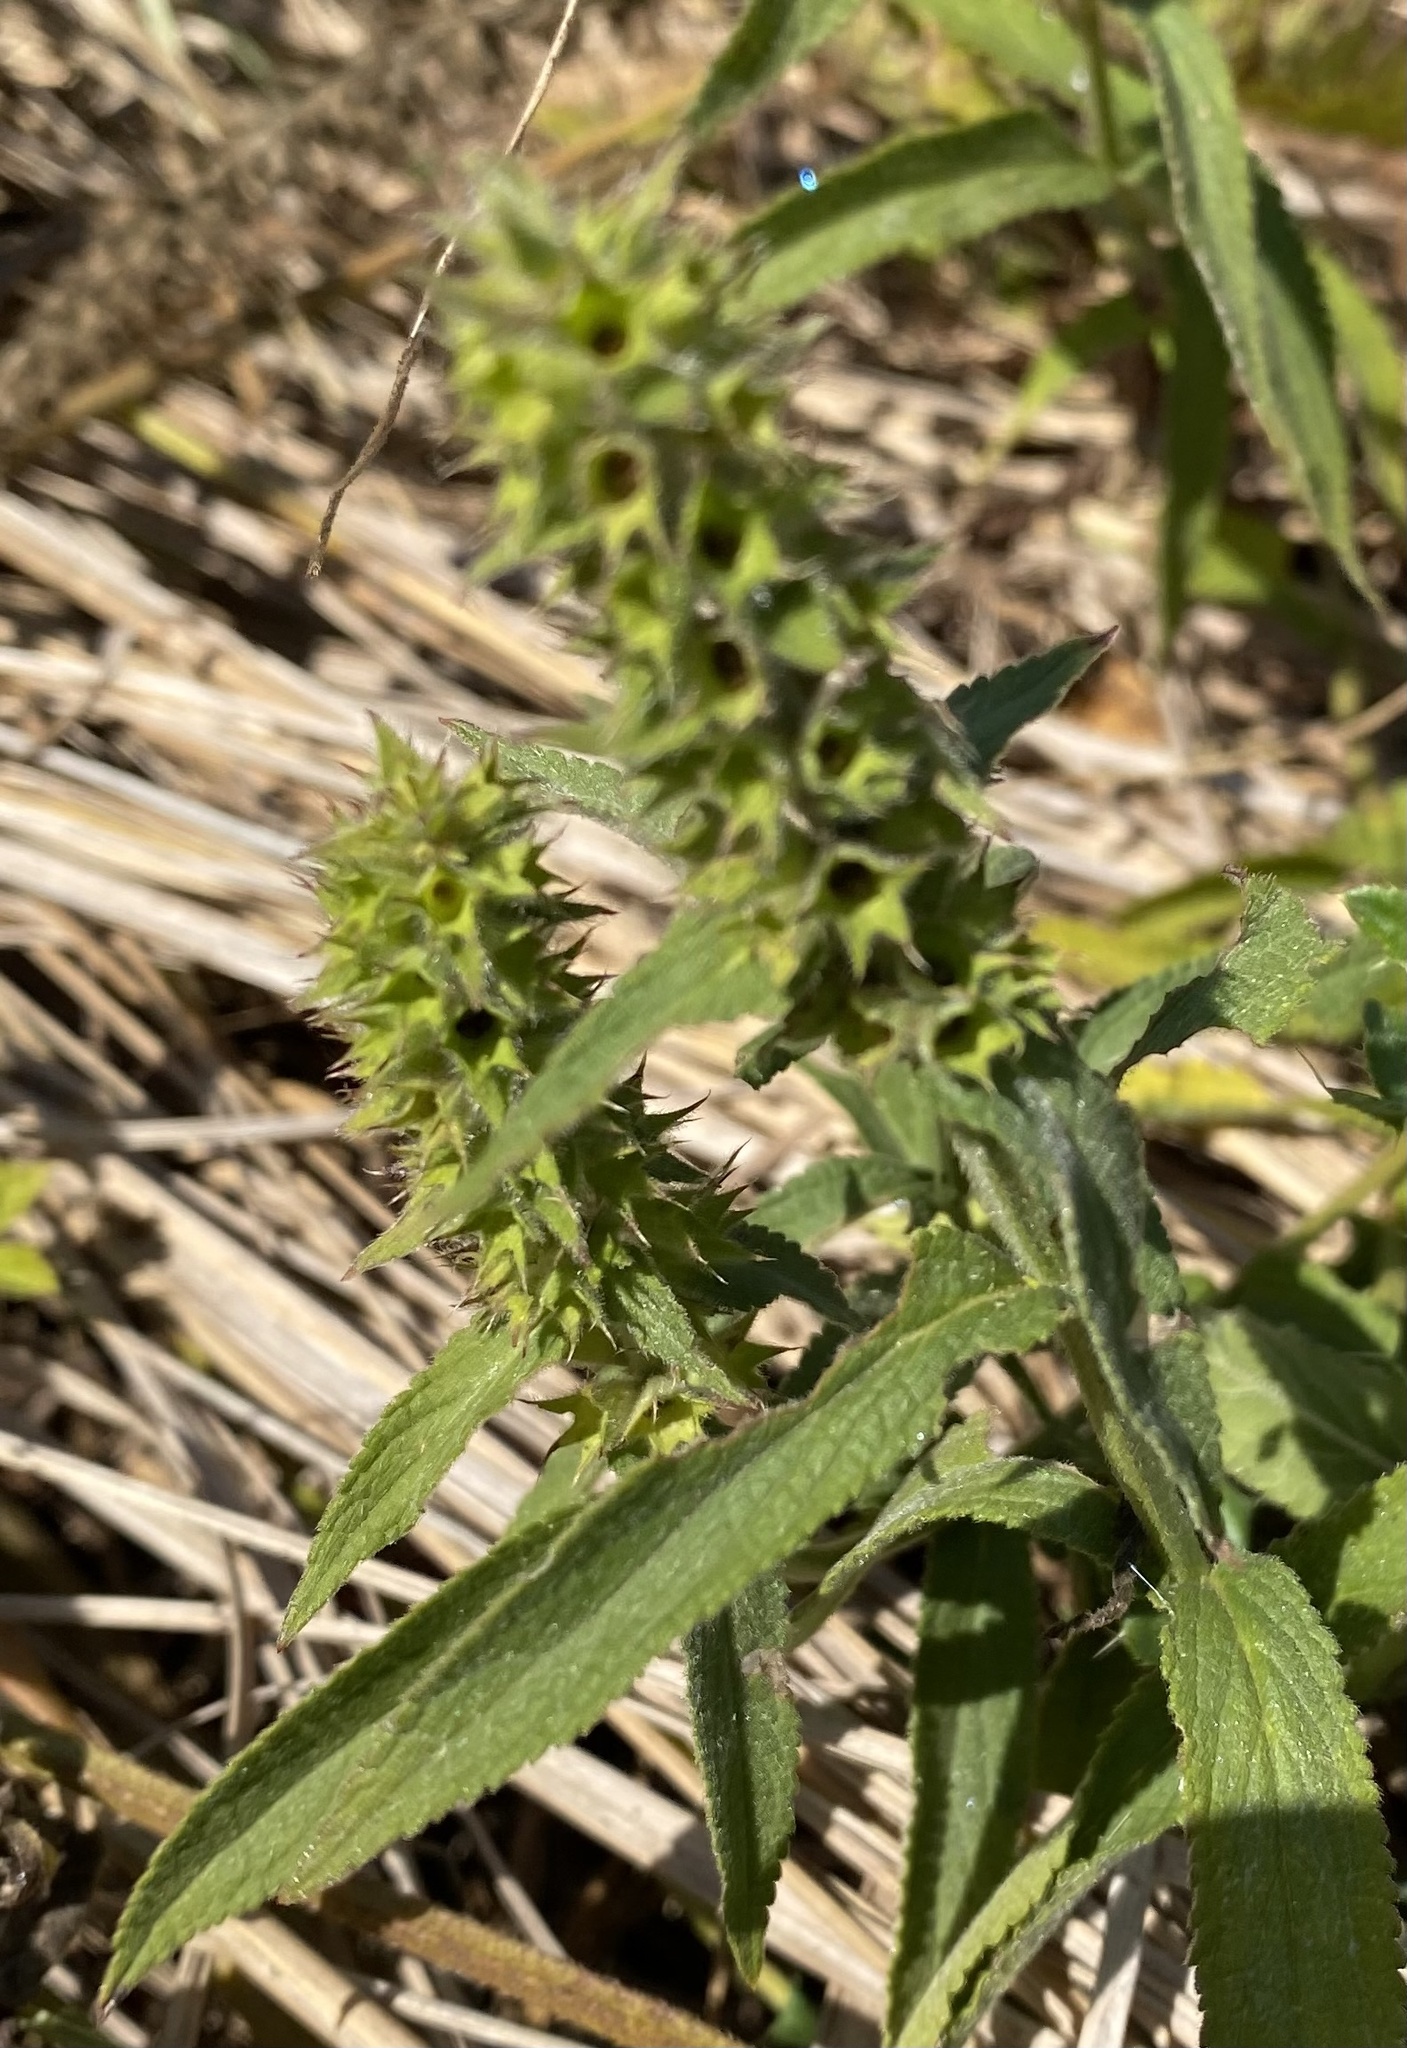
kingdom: Plantae
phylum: Tracheophyta
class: Magnoliopsida
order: Lamiales
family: Lamiaceae
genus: Stachys
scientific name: Stachys palustris
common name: Marsh woundwort
